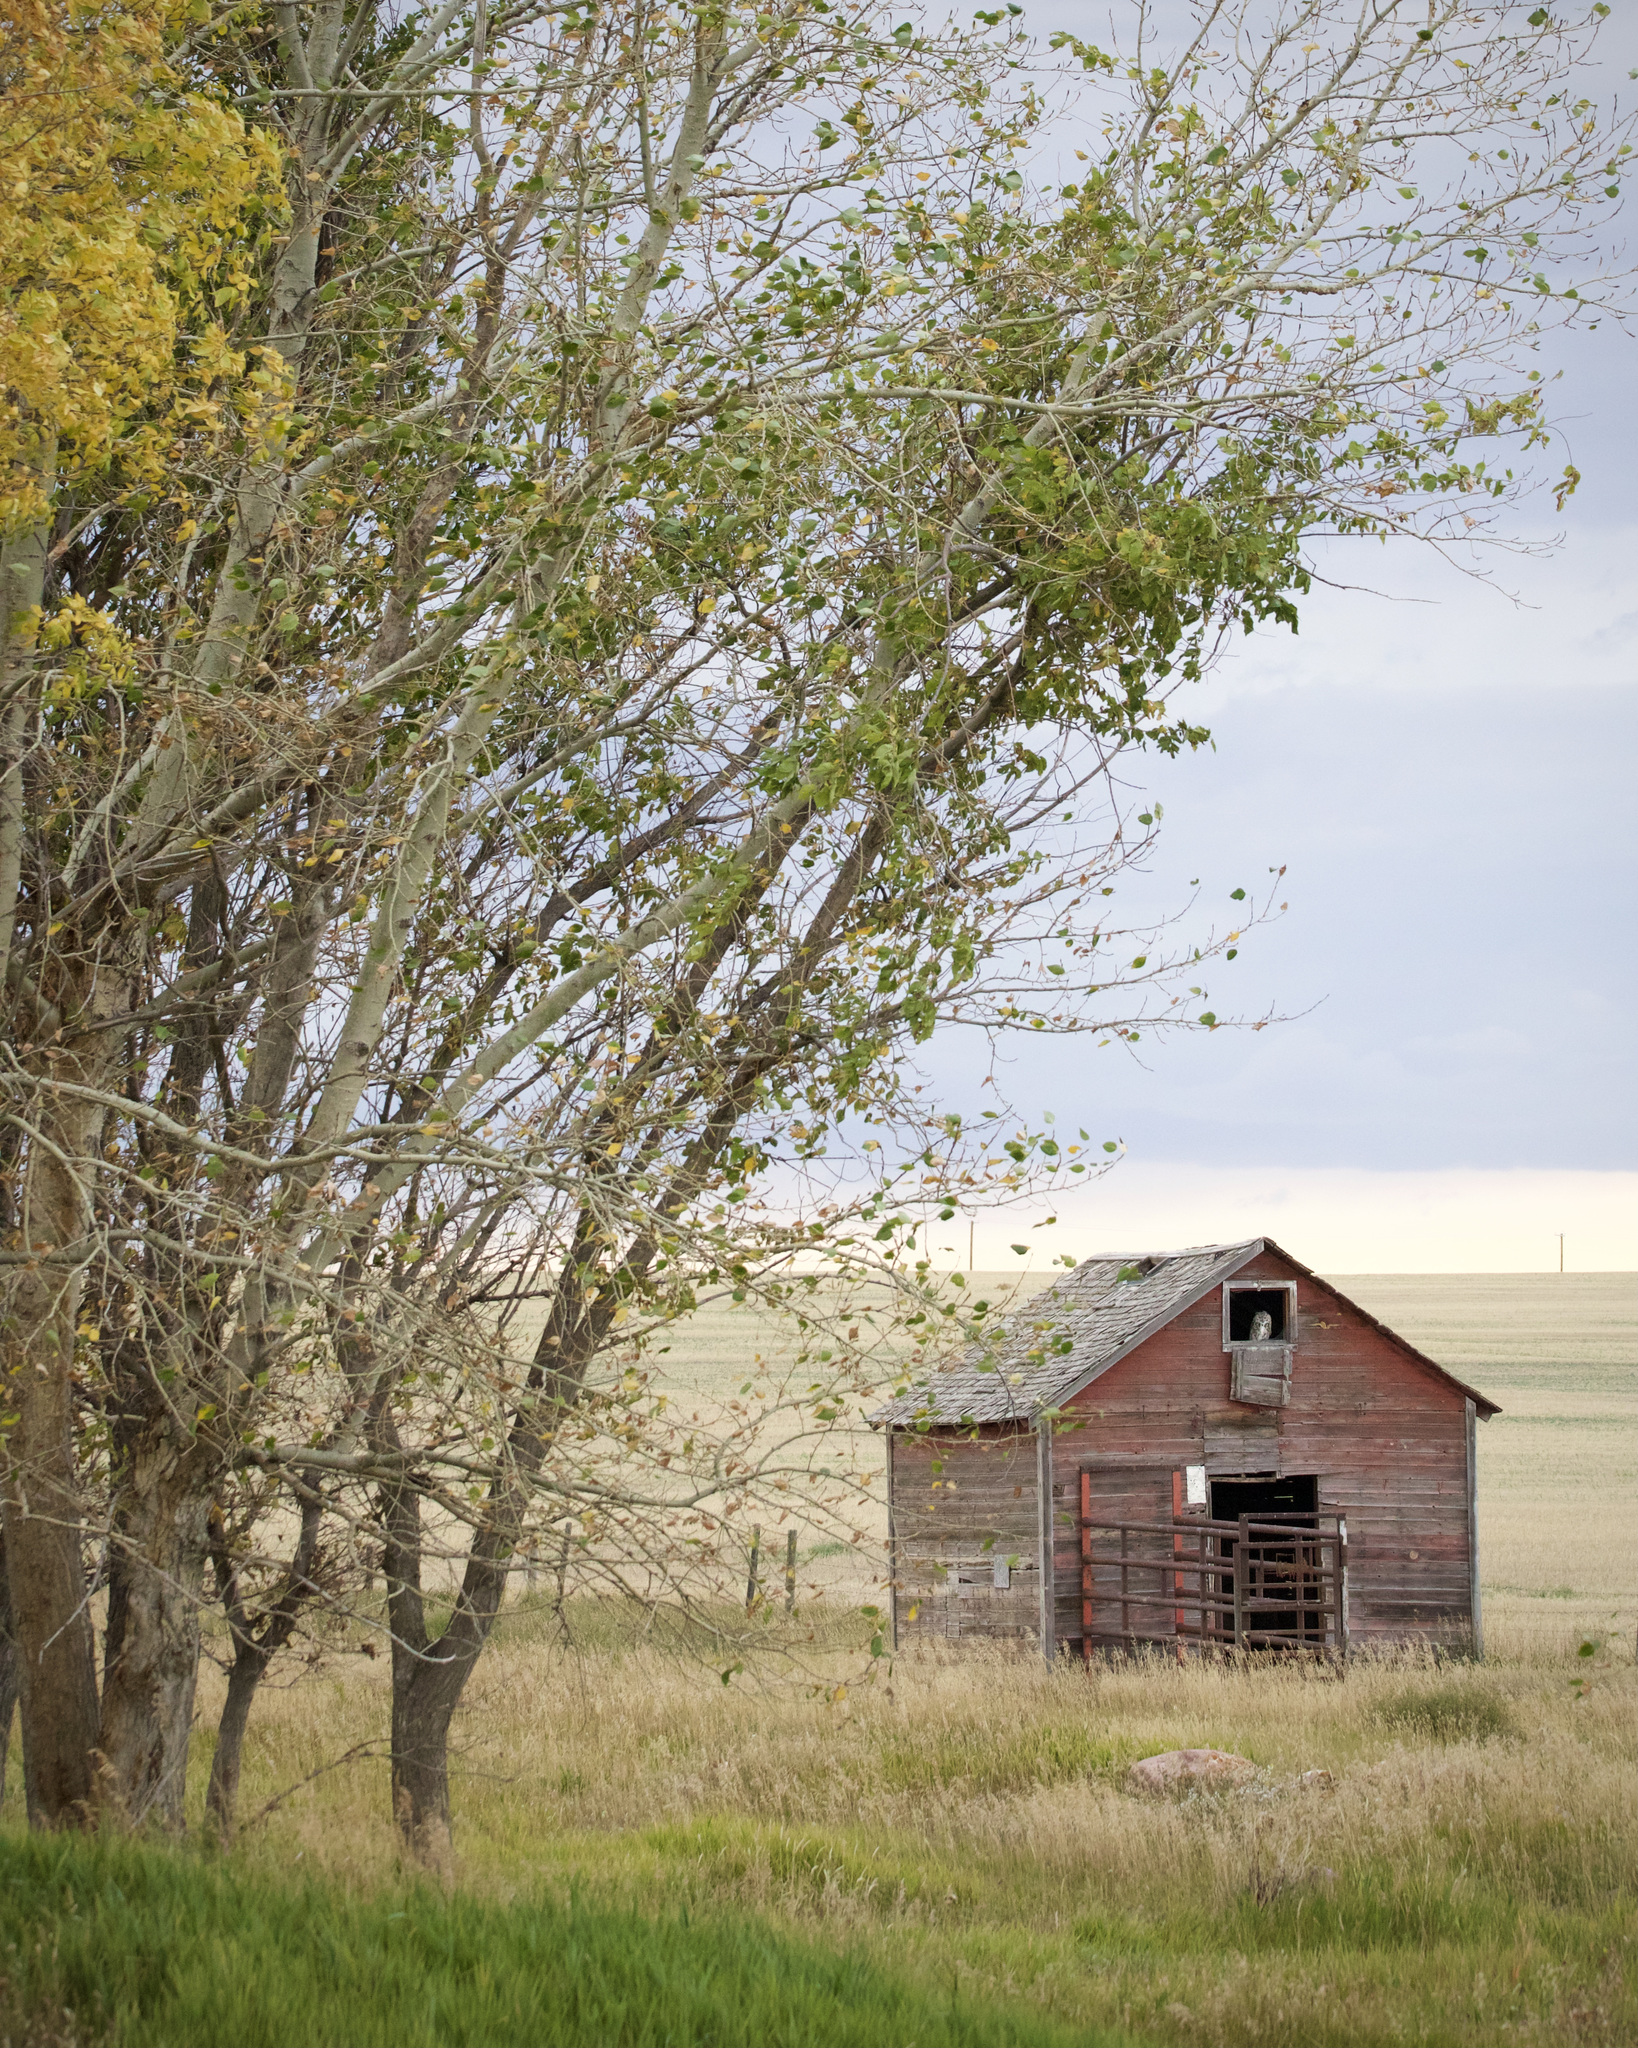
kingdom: Animalia
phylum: Chordata
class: Aves
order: Strigiformes
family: Strigidae
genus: Bubo
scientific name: Bubo virginianus
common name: Great horned owl
